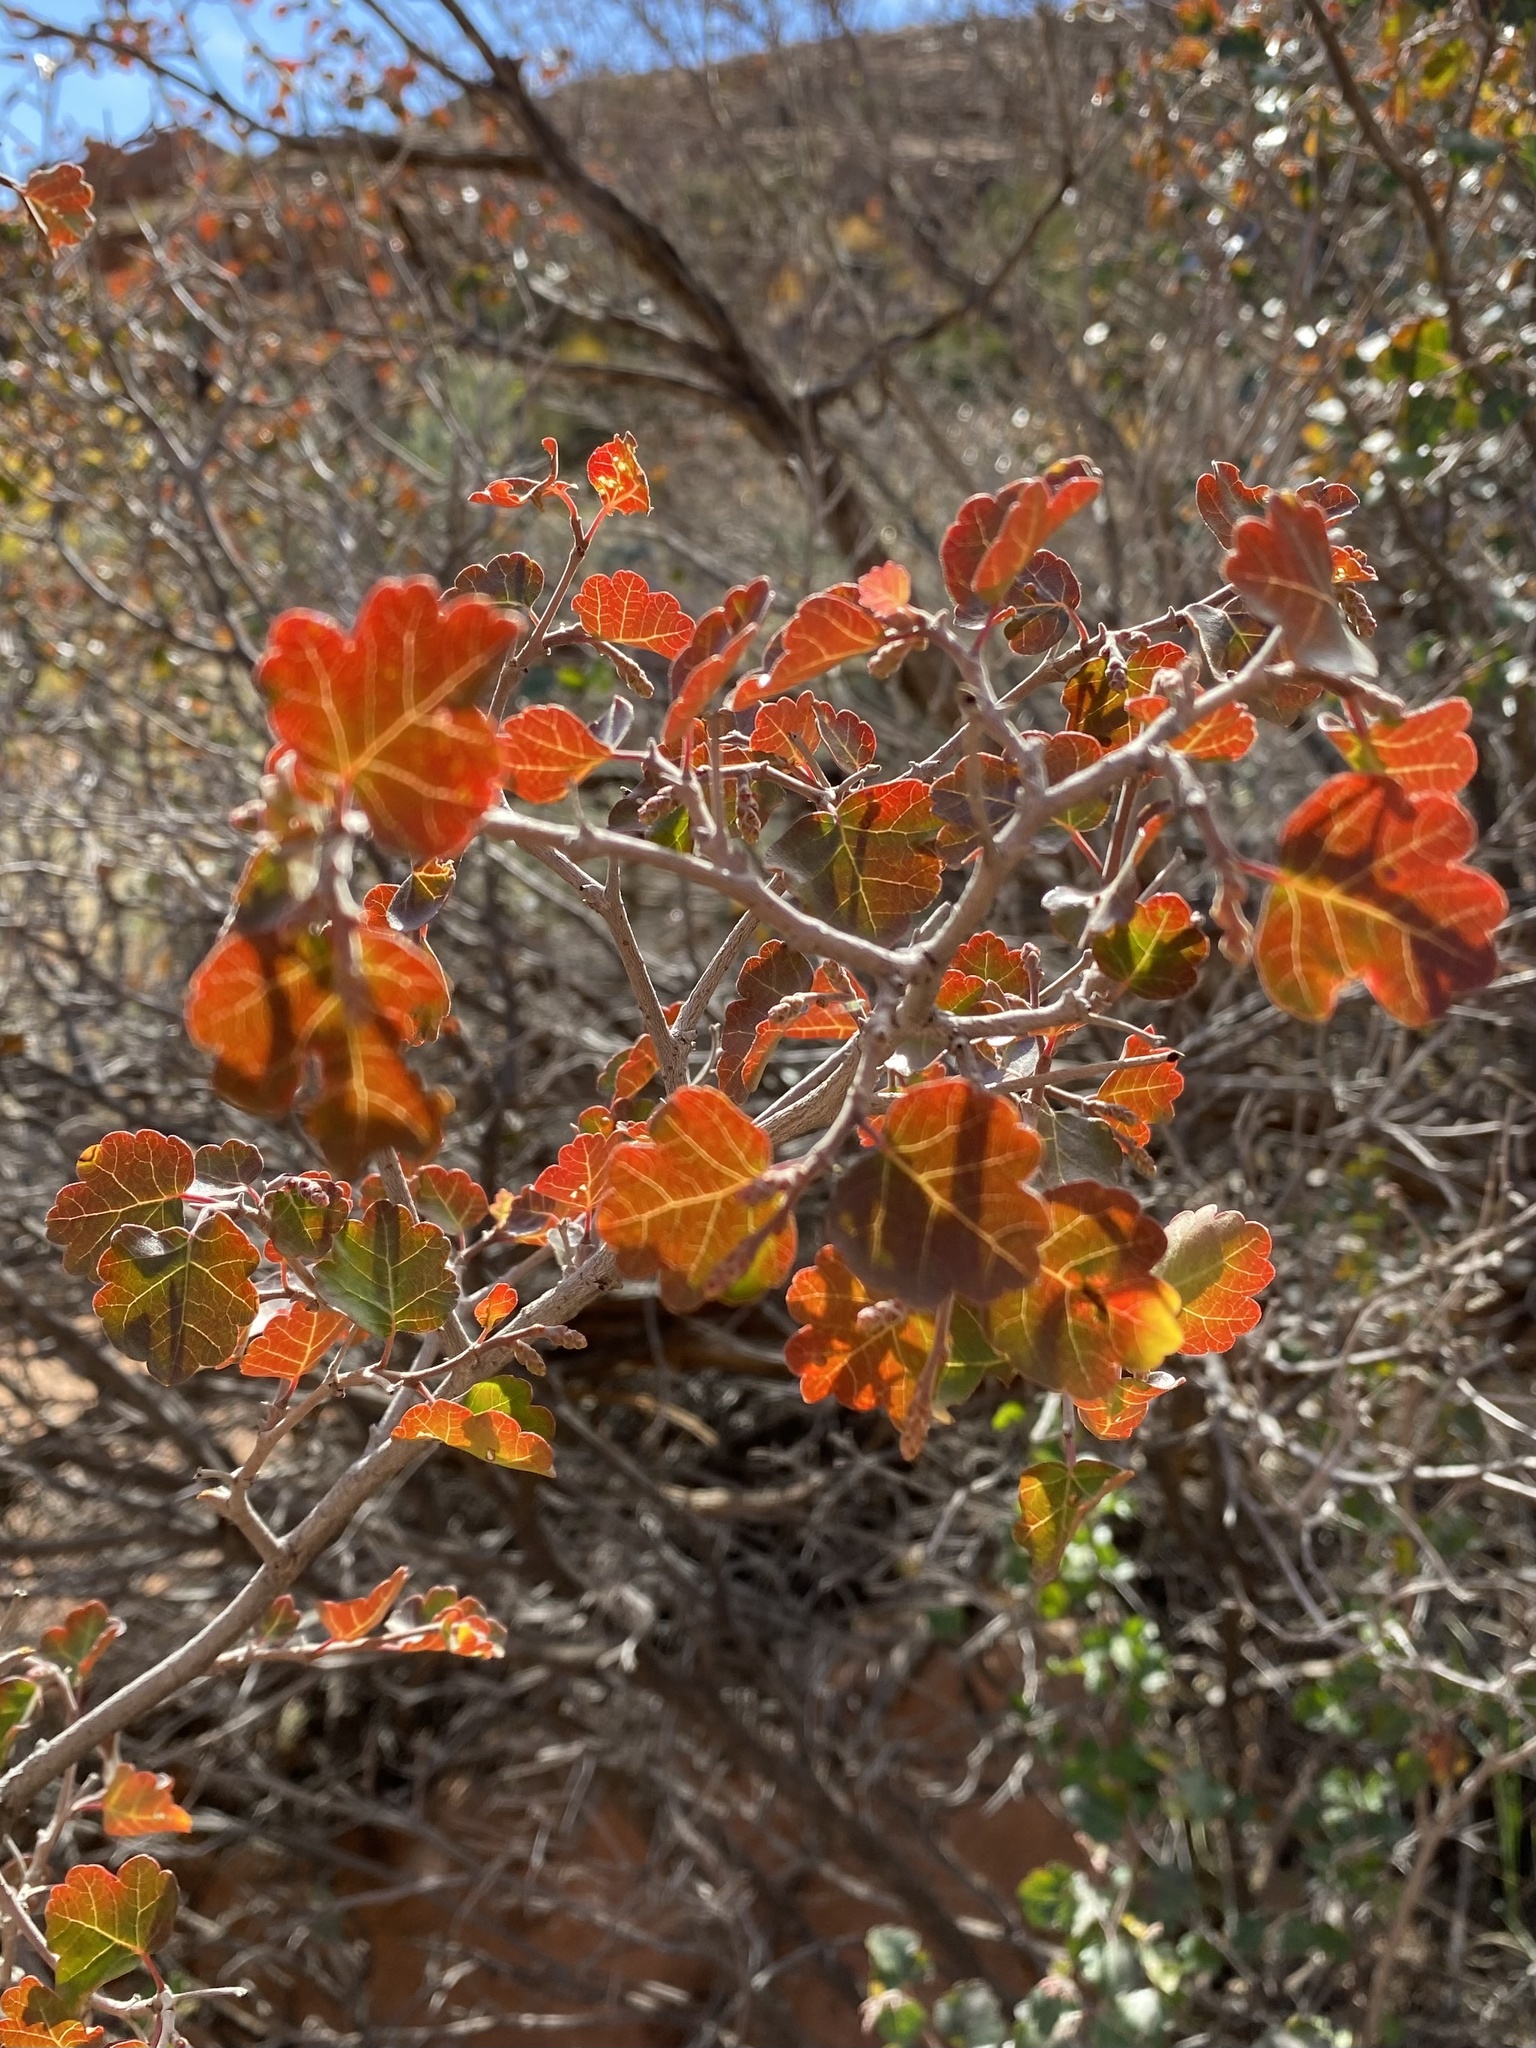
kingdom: Plantae
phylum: Tracheophyta
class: Magnoliopsida
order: Sapindales
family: Anacardiaceae
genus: Rhus
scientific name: Rhus trilobata
